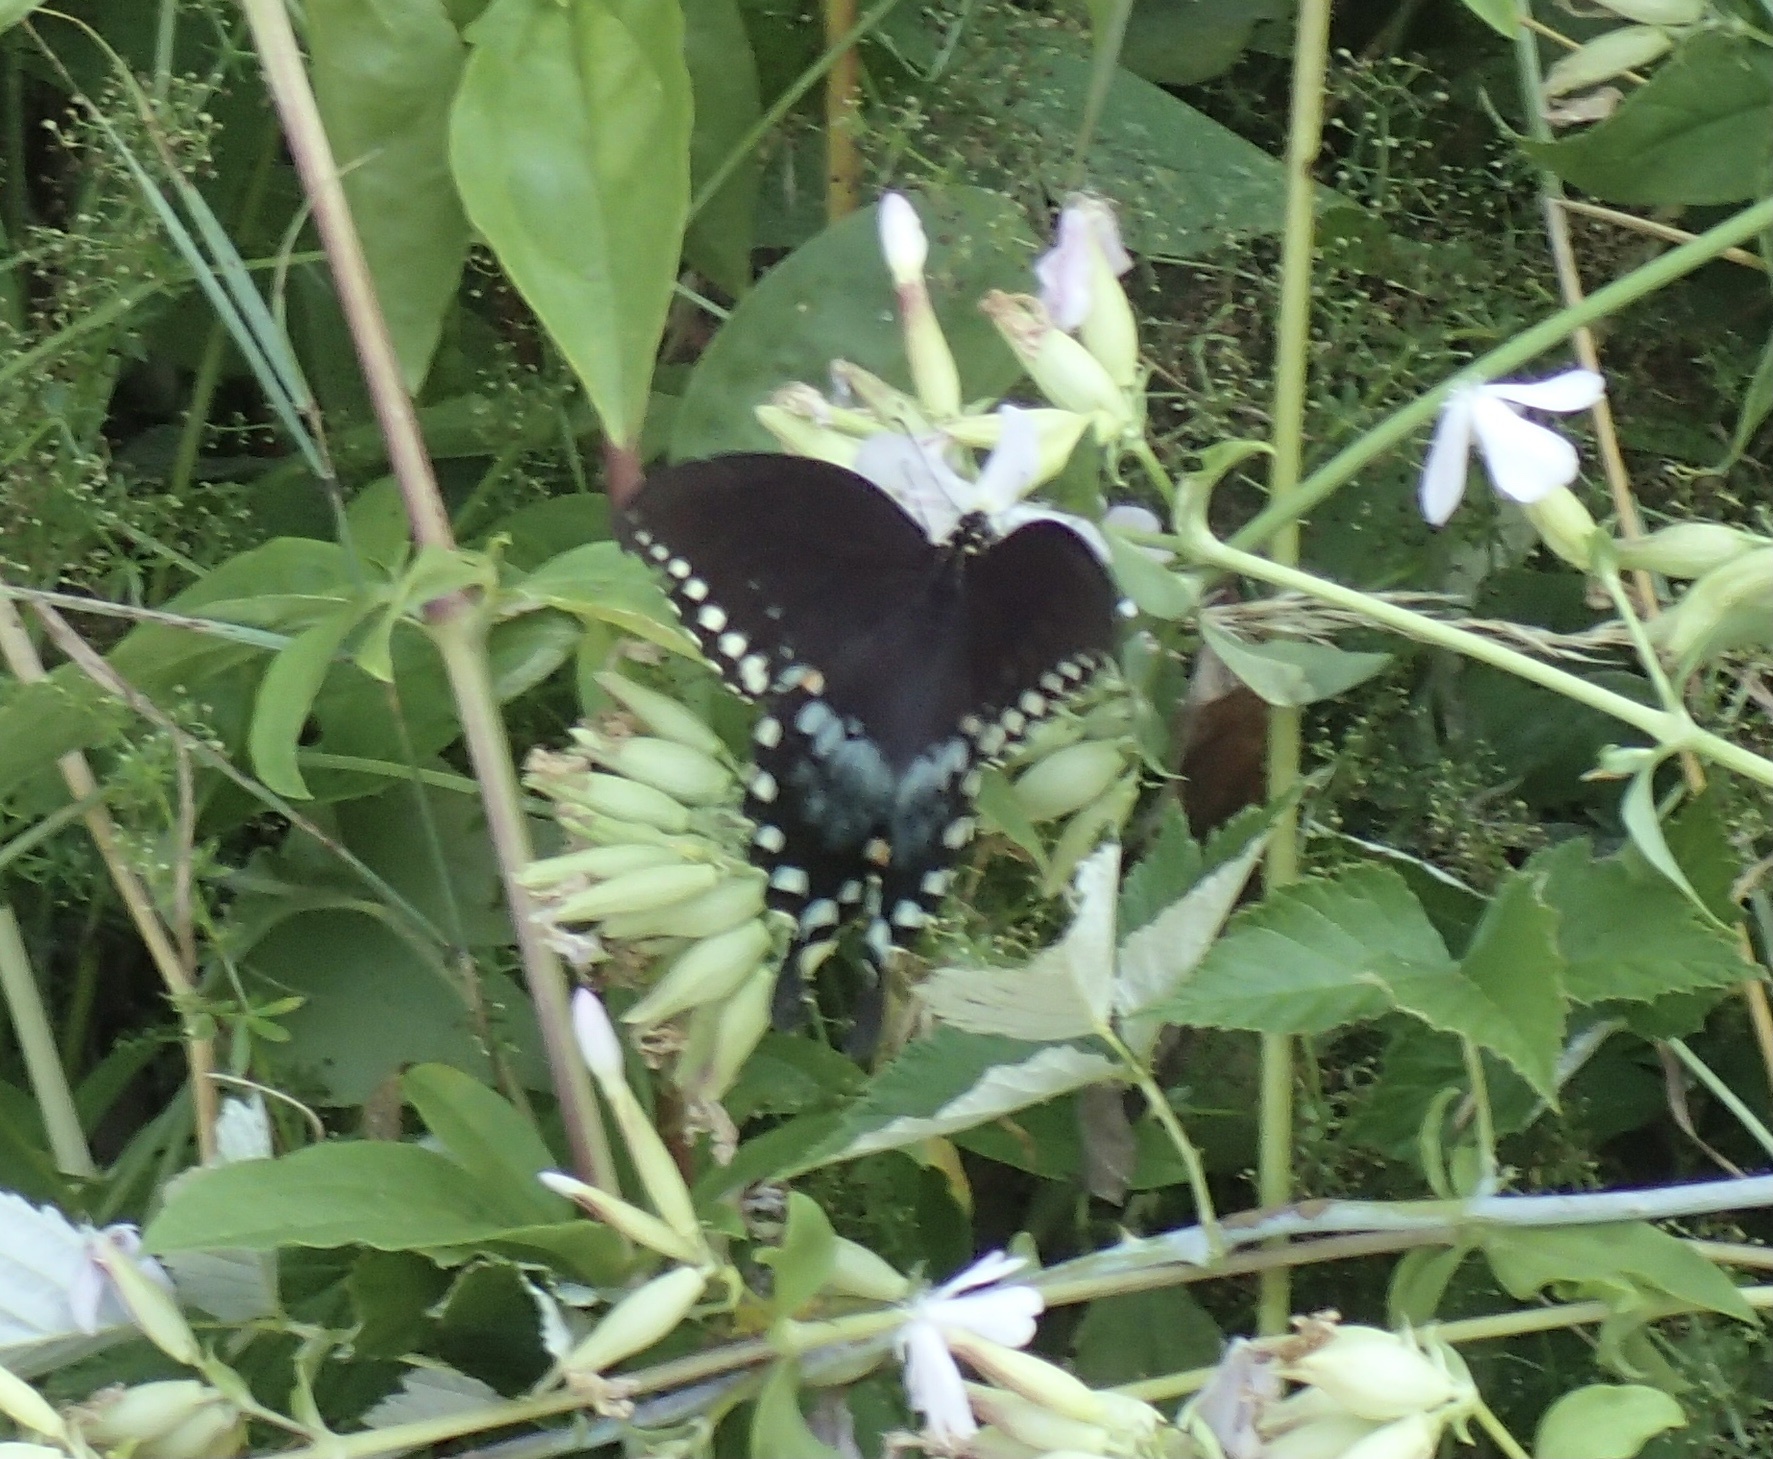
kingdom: Animalia
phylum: Arthropoda
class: Insecta
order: Lepidoptera
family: Papilionidae
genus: Papilio
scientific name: Papilio troilus
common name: Spicebush swallowtail
